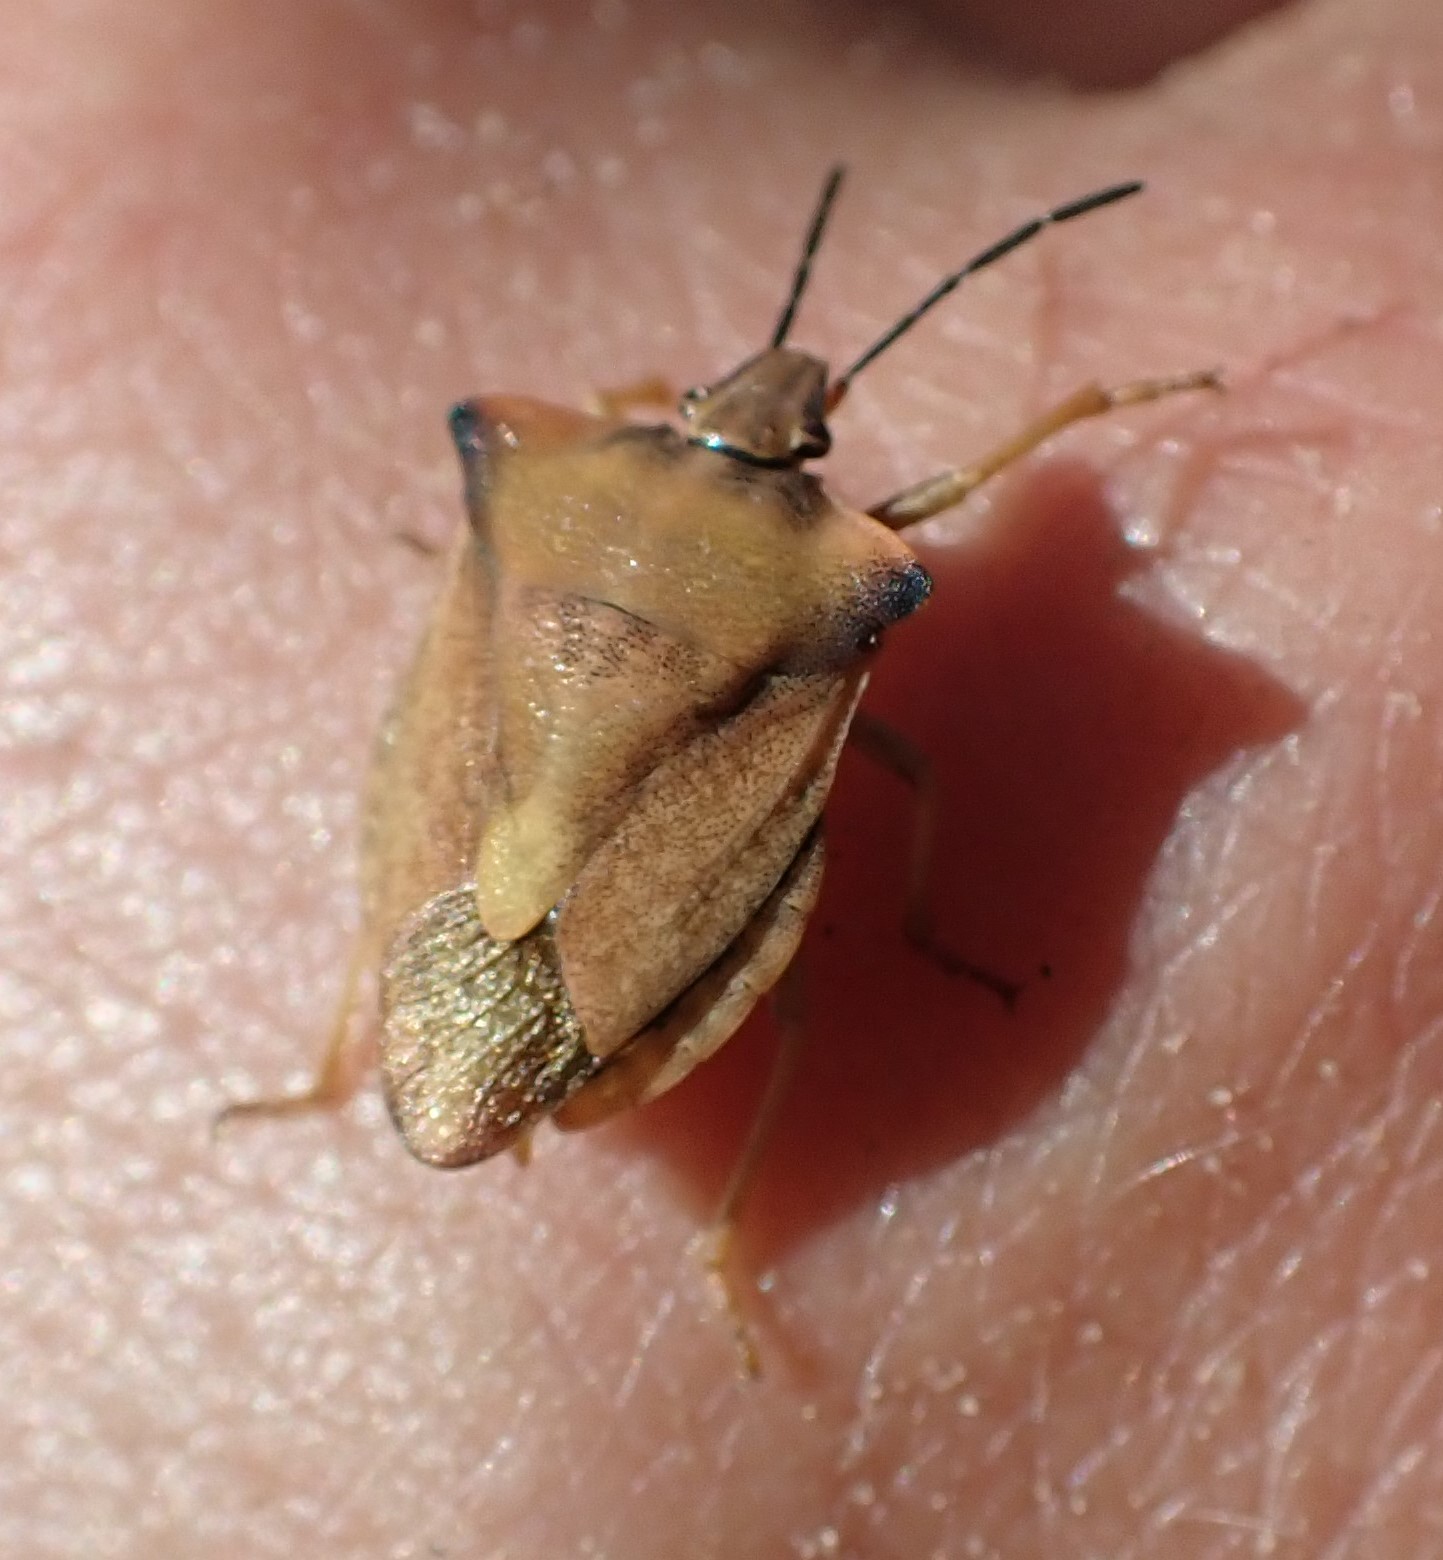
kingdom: Animalia
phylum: Arthropoda
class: Insecta
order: Hemiptera
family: Pentatomidae
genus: Carpocoris
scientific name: Carpocoris fuscispinus
